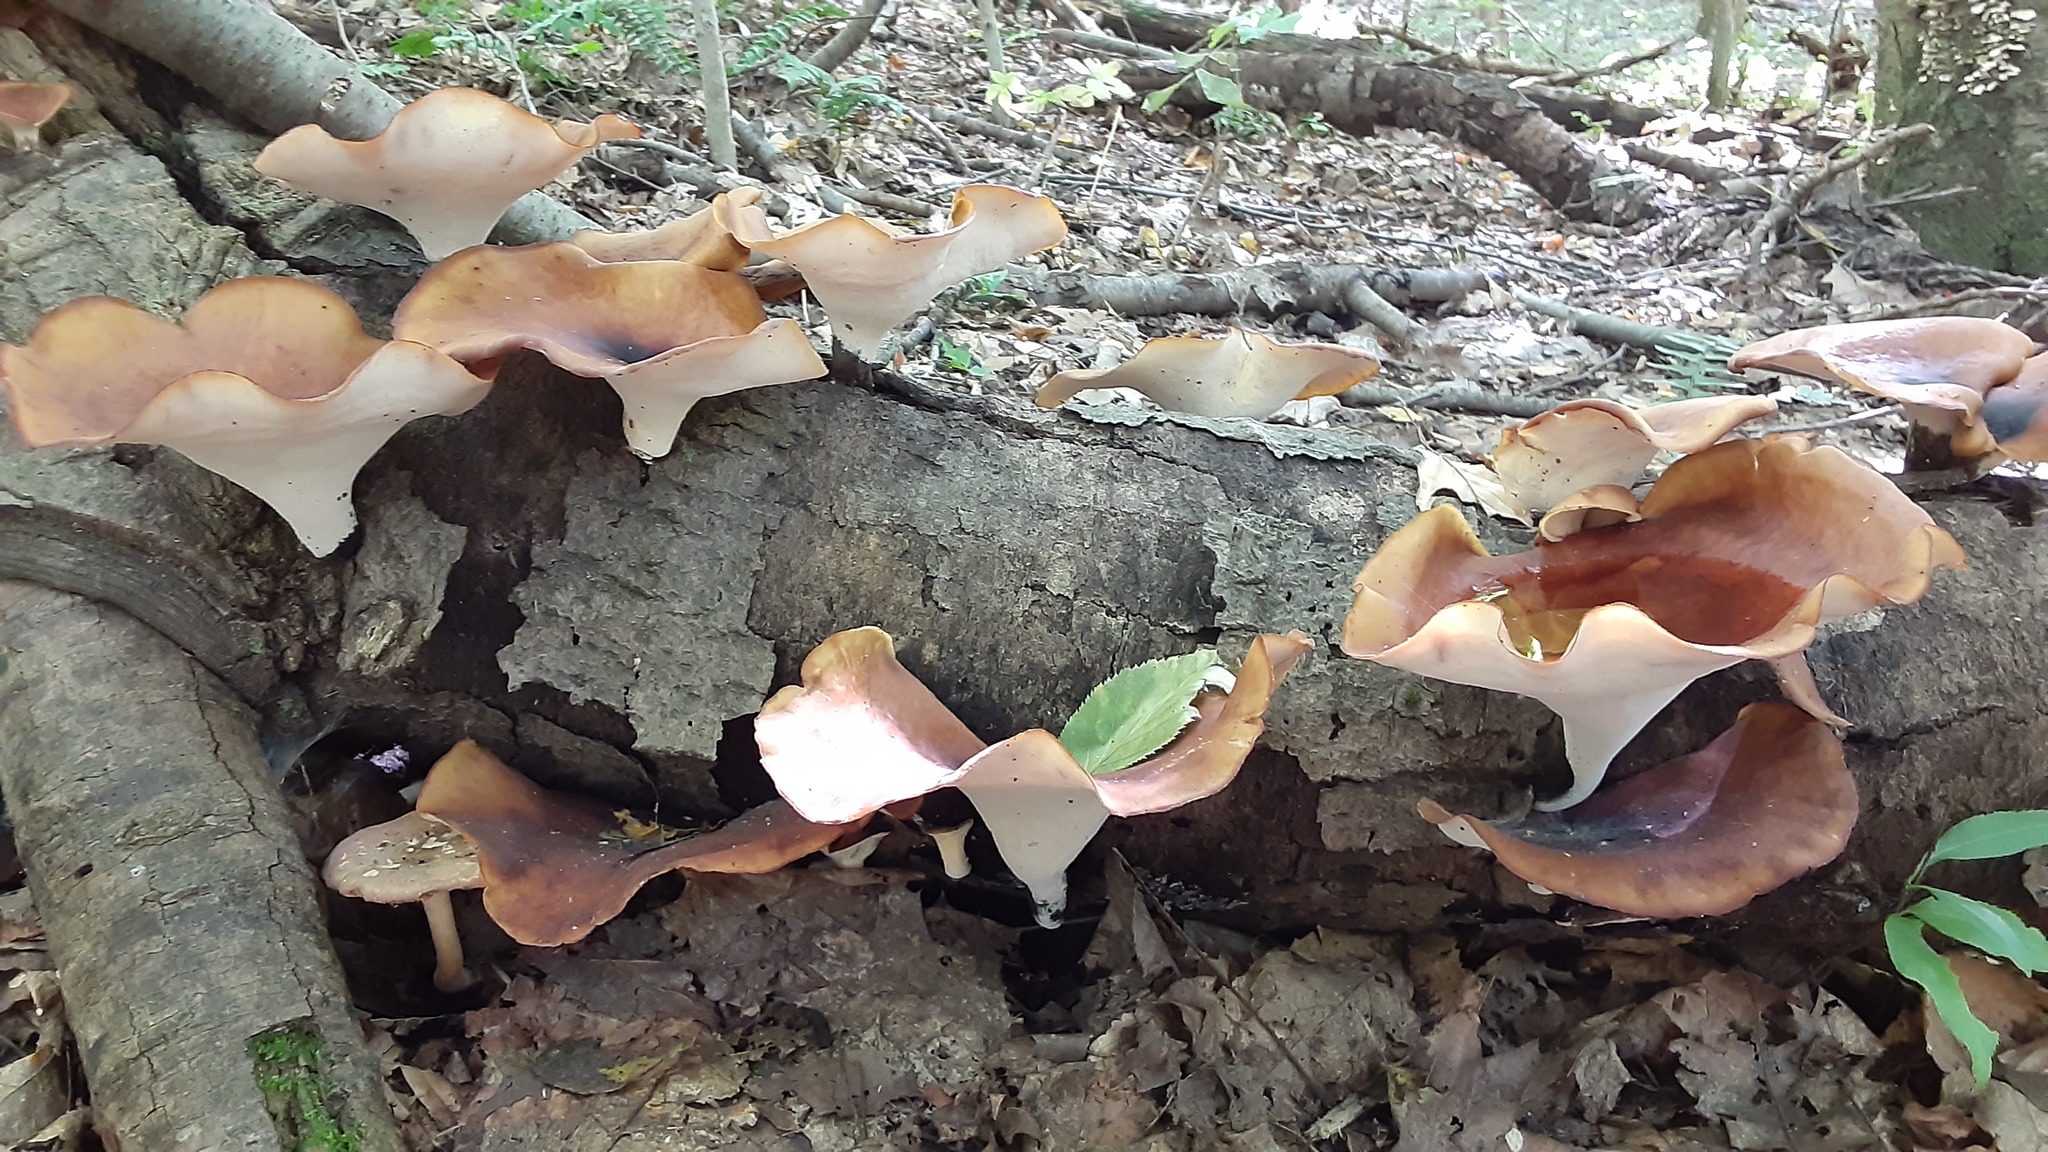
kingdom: Fungi
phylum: Basidiomycota
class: Agaricomycetes
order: Polyporales
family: Polyporaceae
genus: Picipes
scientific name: Picipes badius
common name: Bay polypore
